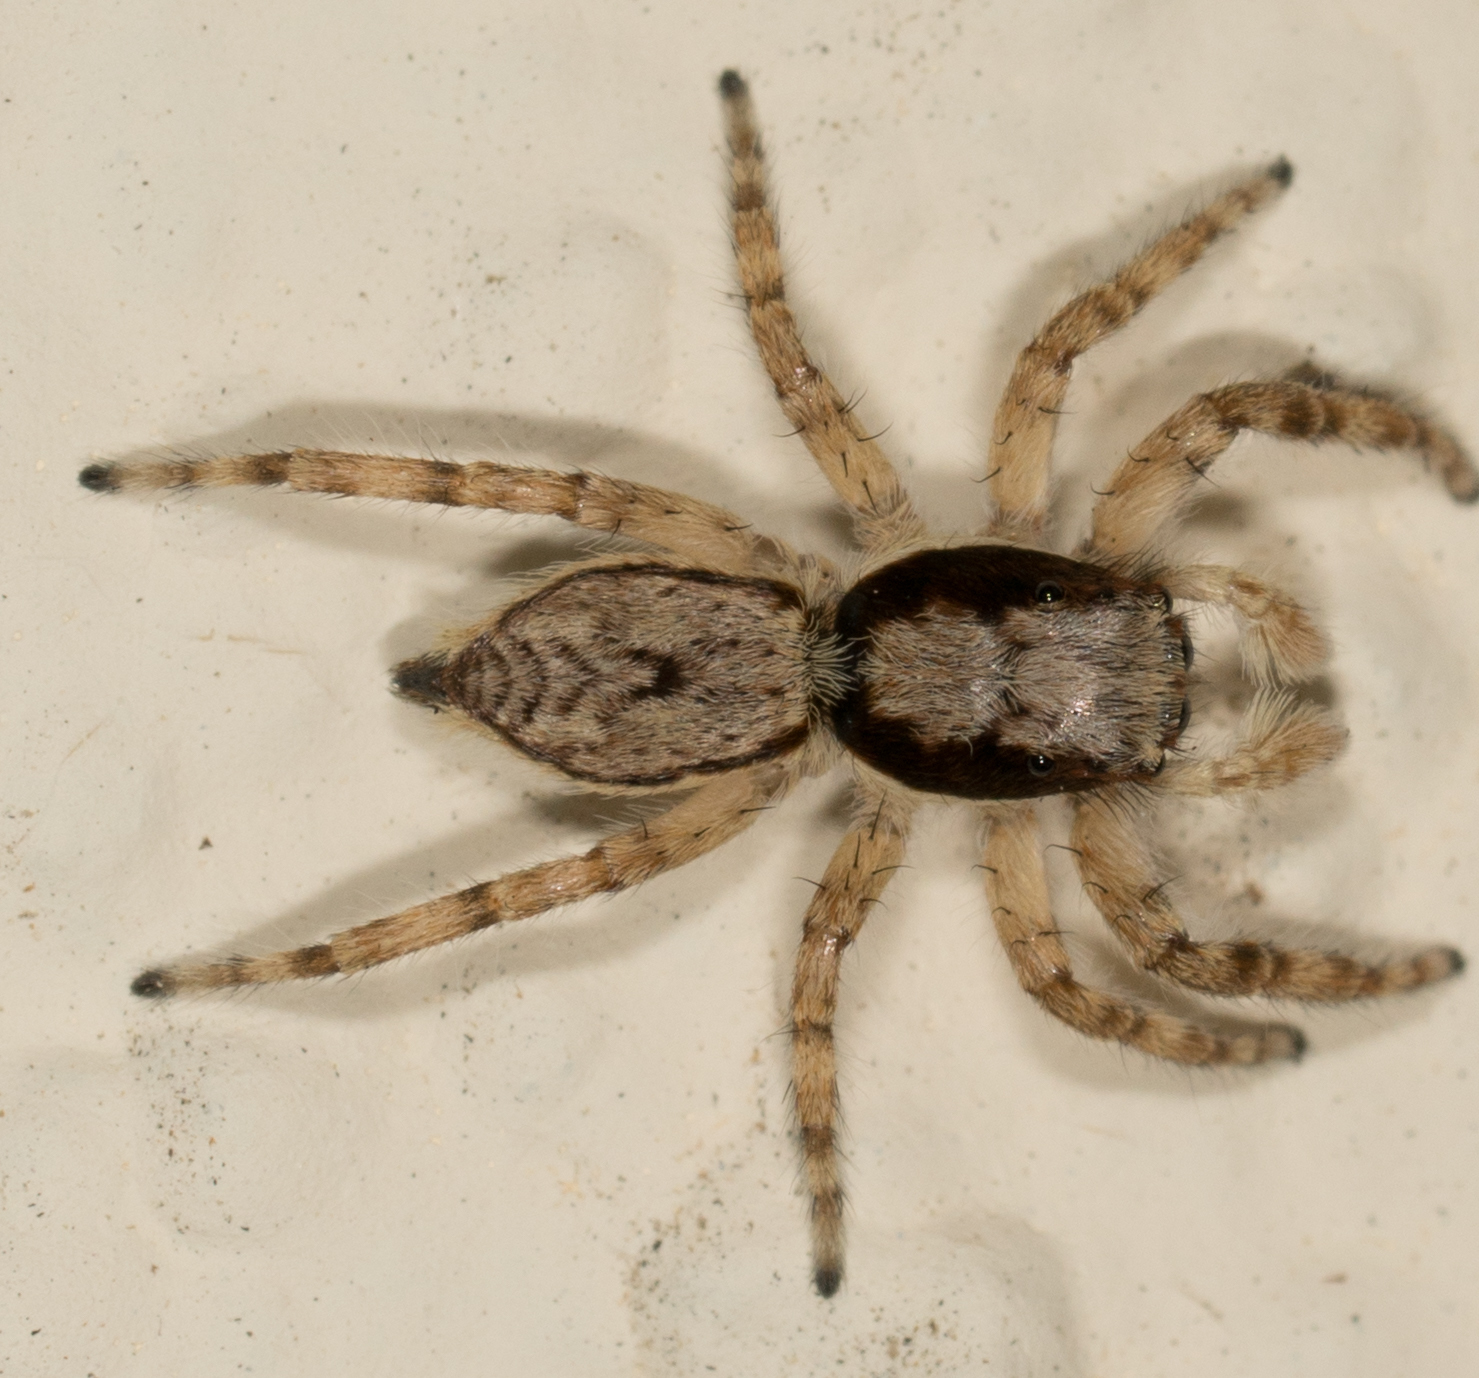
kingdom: Animalia
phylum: Arthropoda
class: Arachnida
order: Araneae
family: Salticidae
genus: Menemerus
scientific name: Menemerus bivittatus
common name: Gray wall jumper
